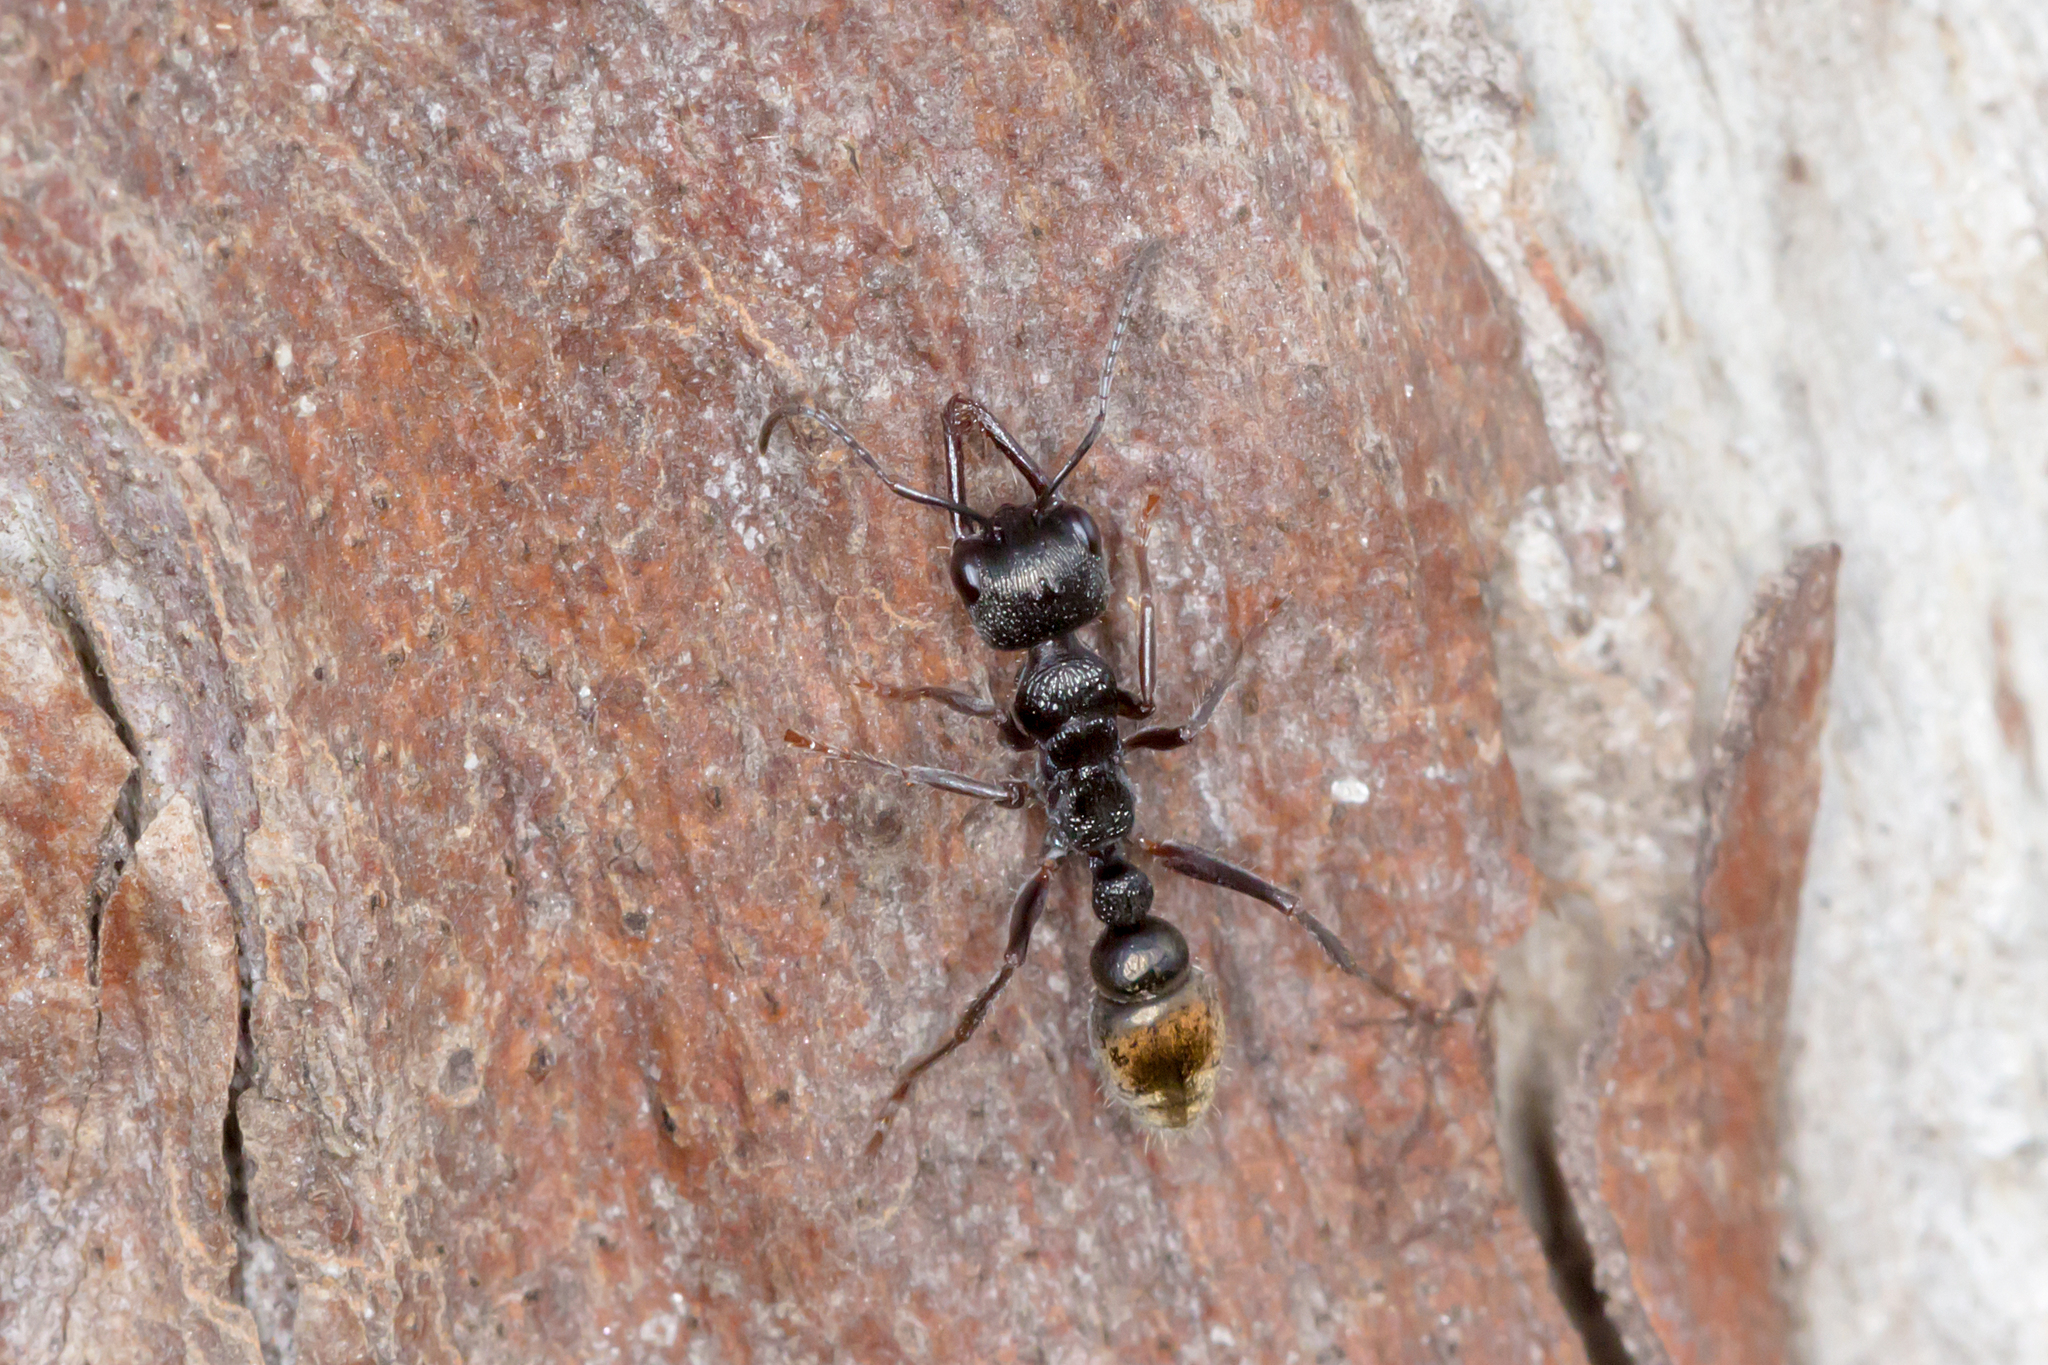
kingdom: Animalia
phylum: Arthropoda
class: Insecta
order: Hymenoptera
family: Formicidae
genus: Myrmecia
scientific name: Myrmecia piliventris
